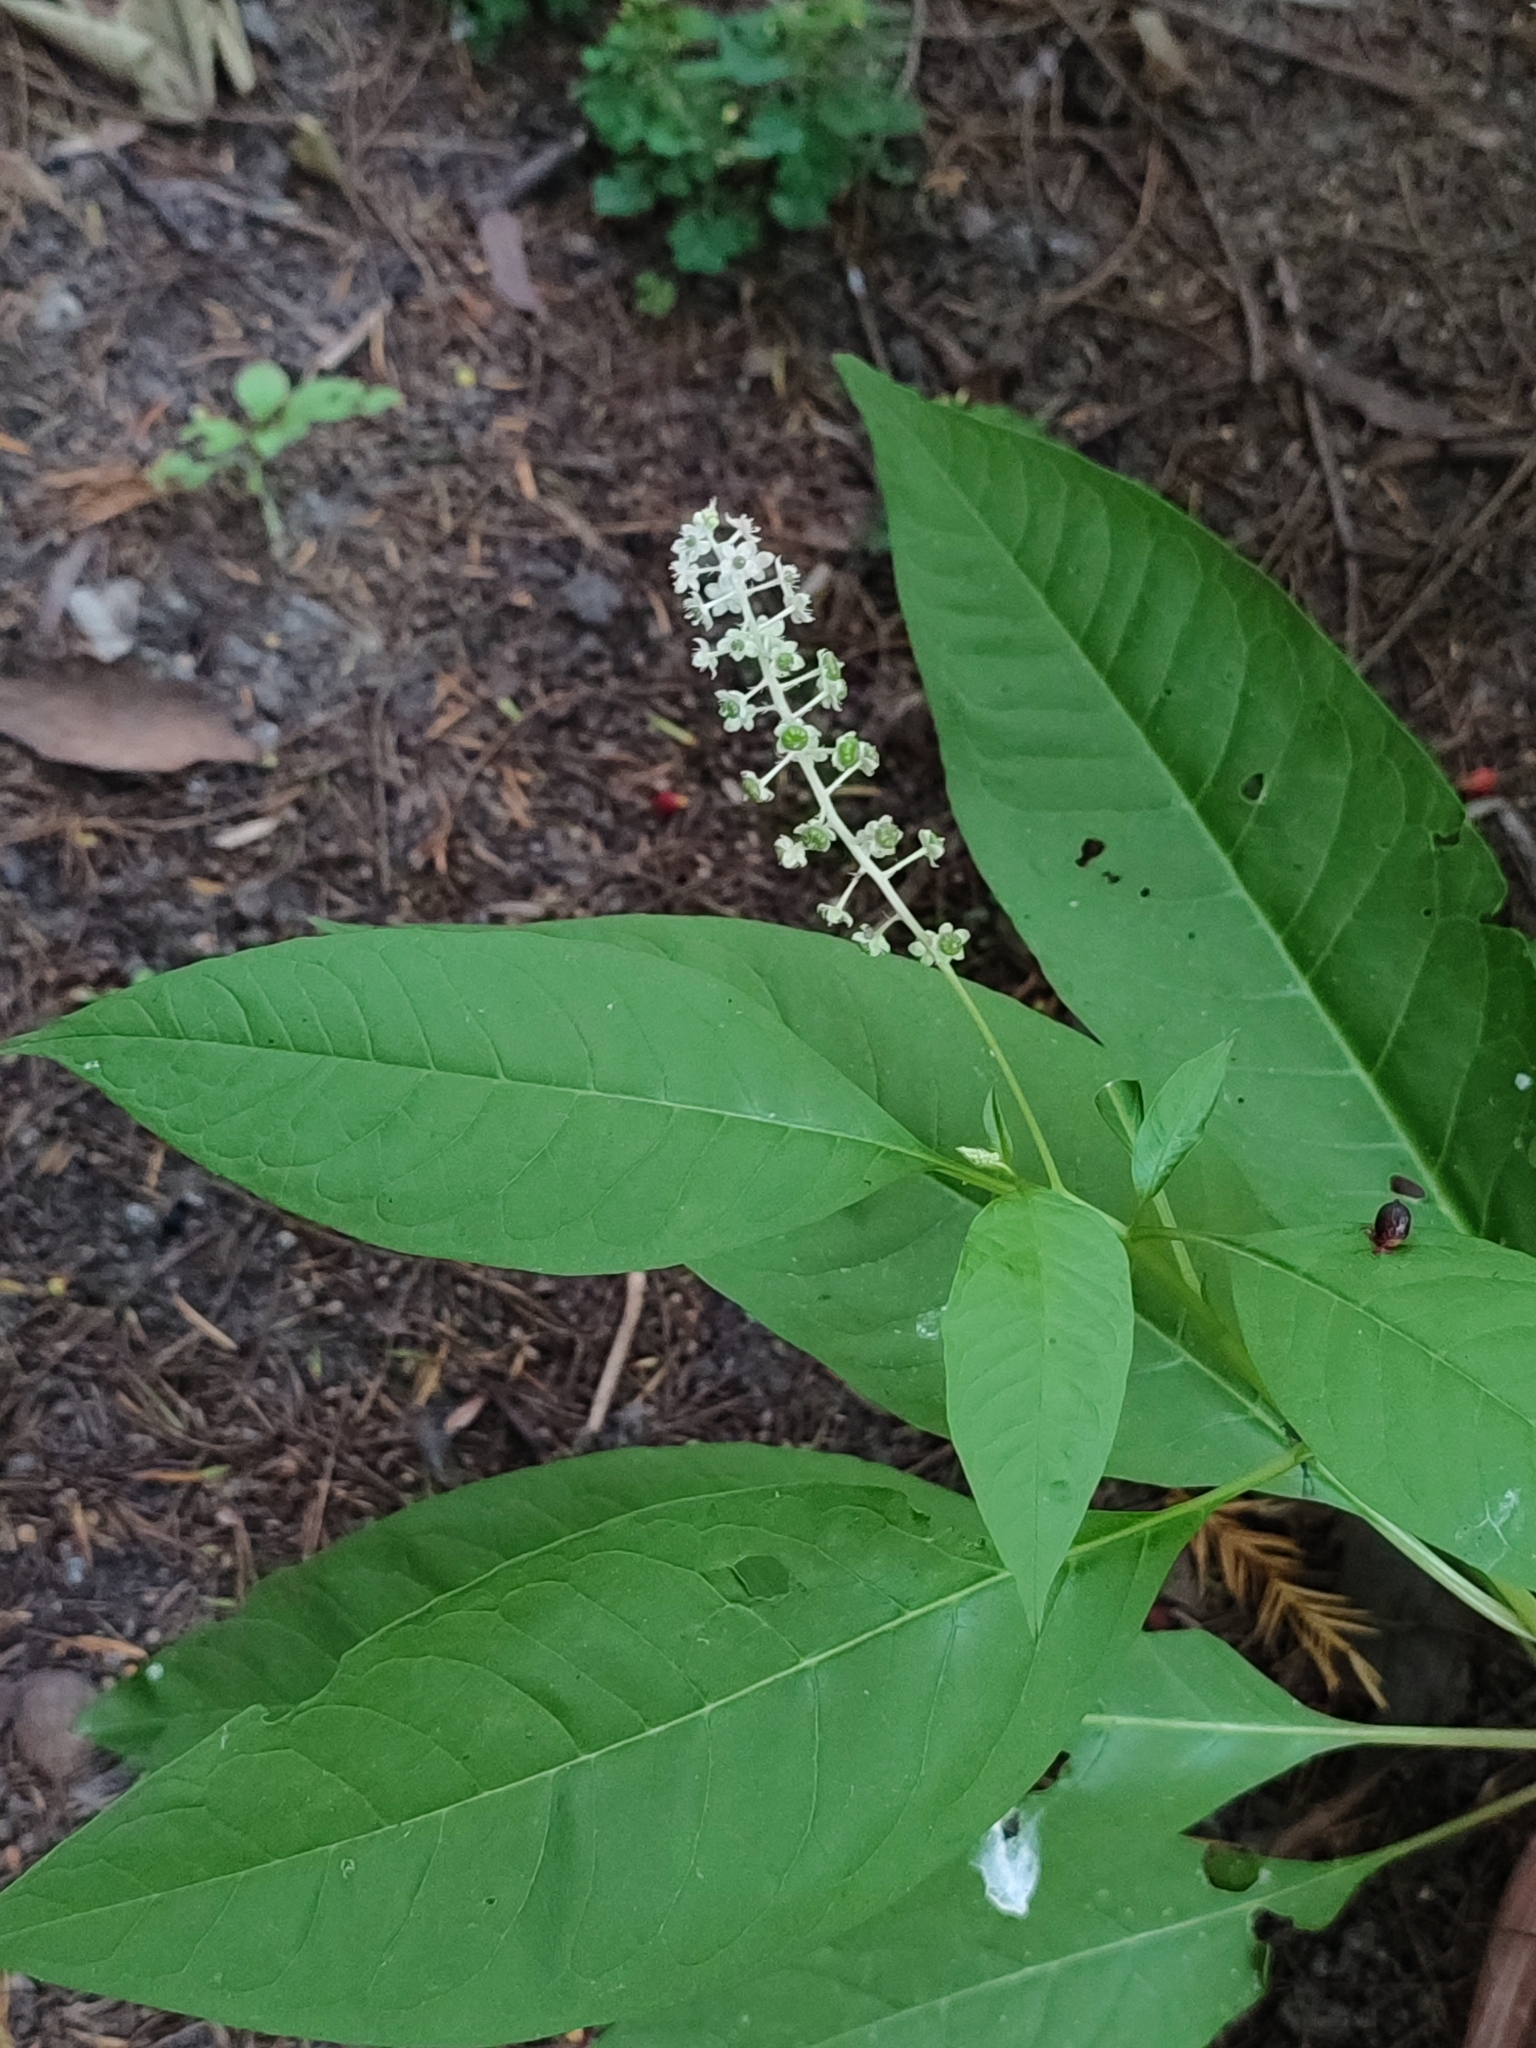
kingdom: Plantae
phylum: Tracheophyta
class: Magnoliopsida
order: Caryophyllales
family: Phytolaccaceae
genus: Phytolacca
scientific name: Phytolacca americana
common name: American pokeweed
